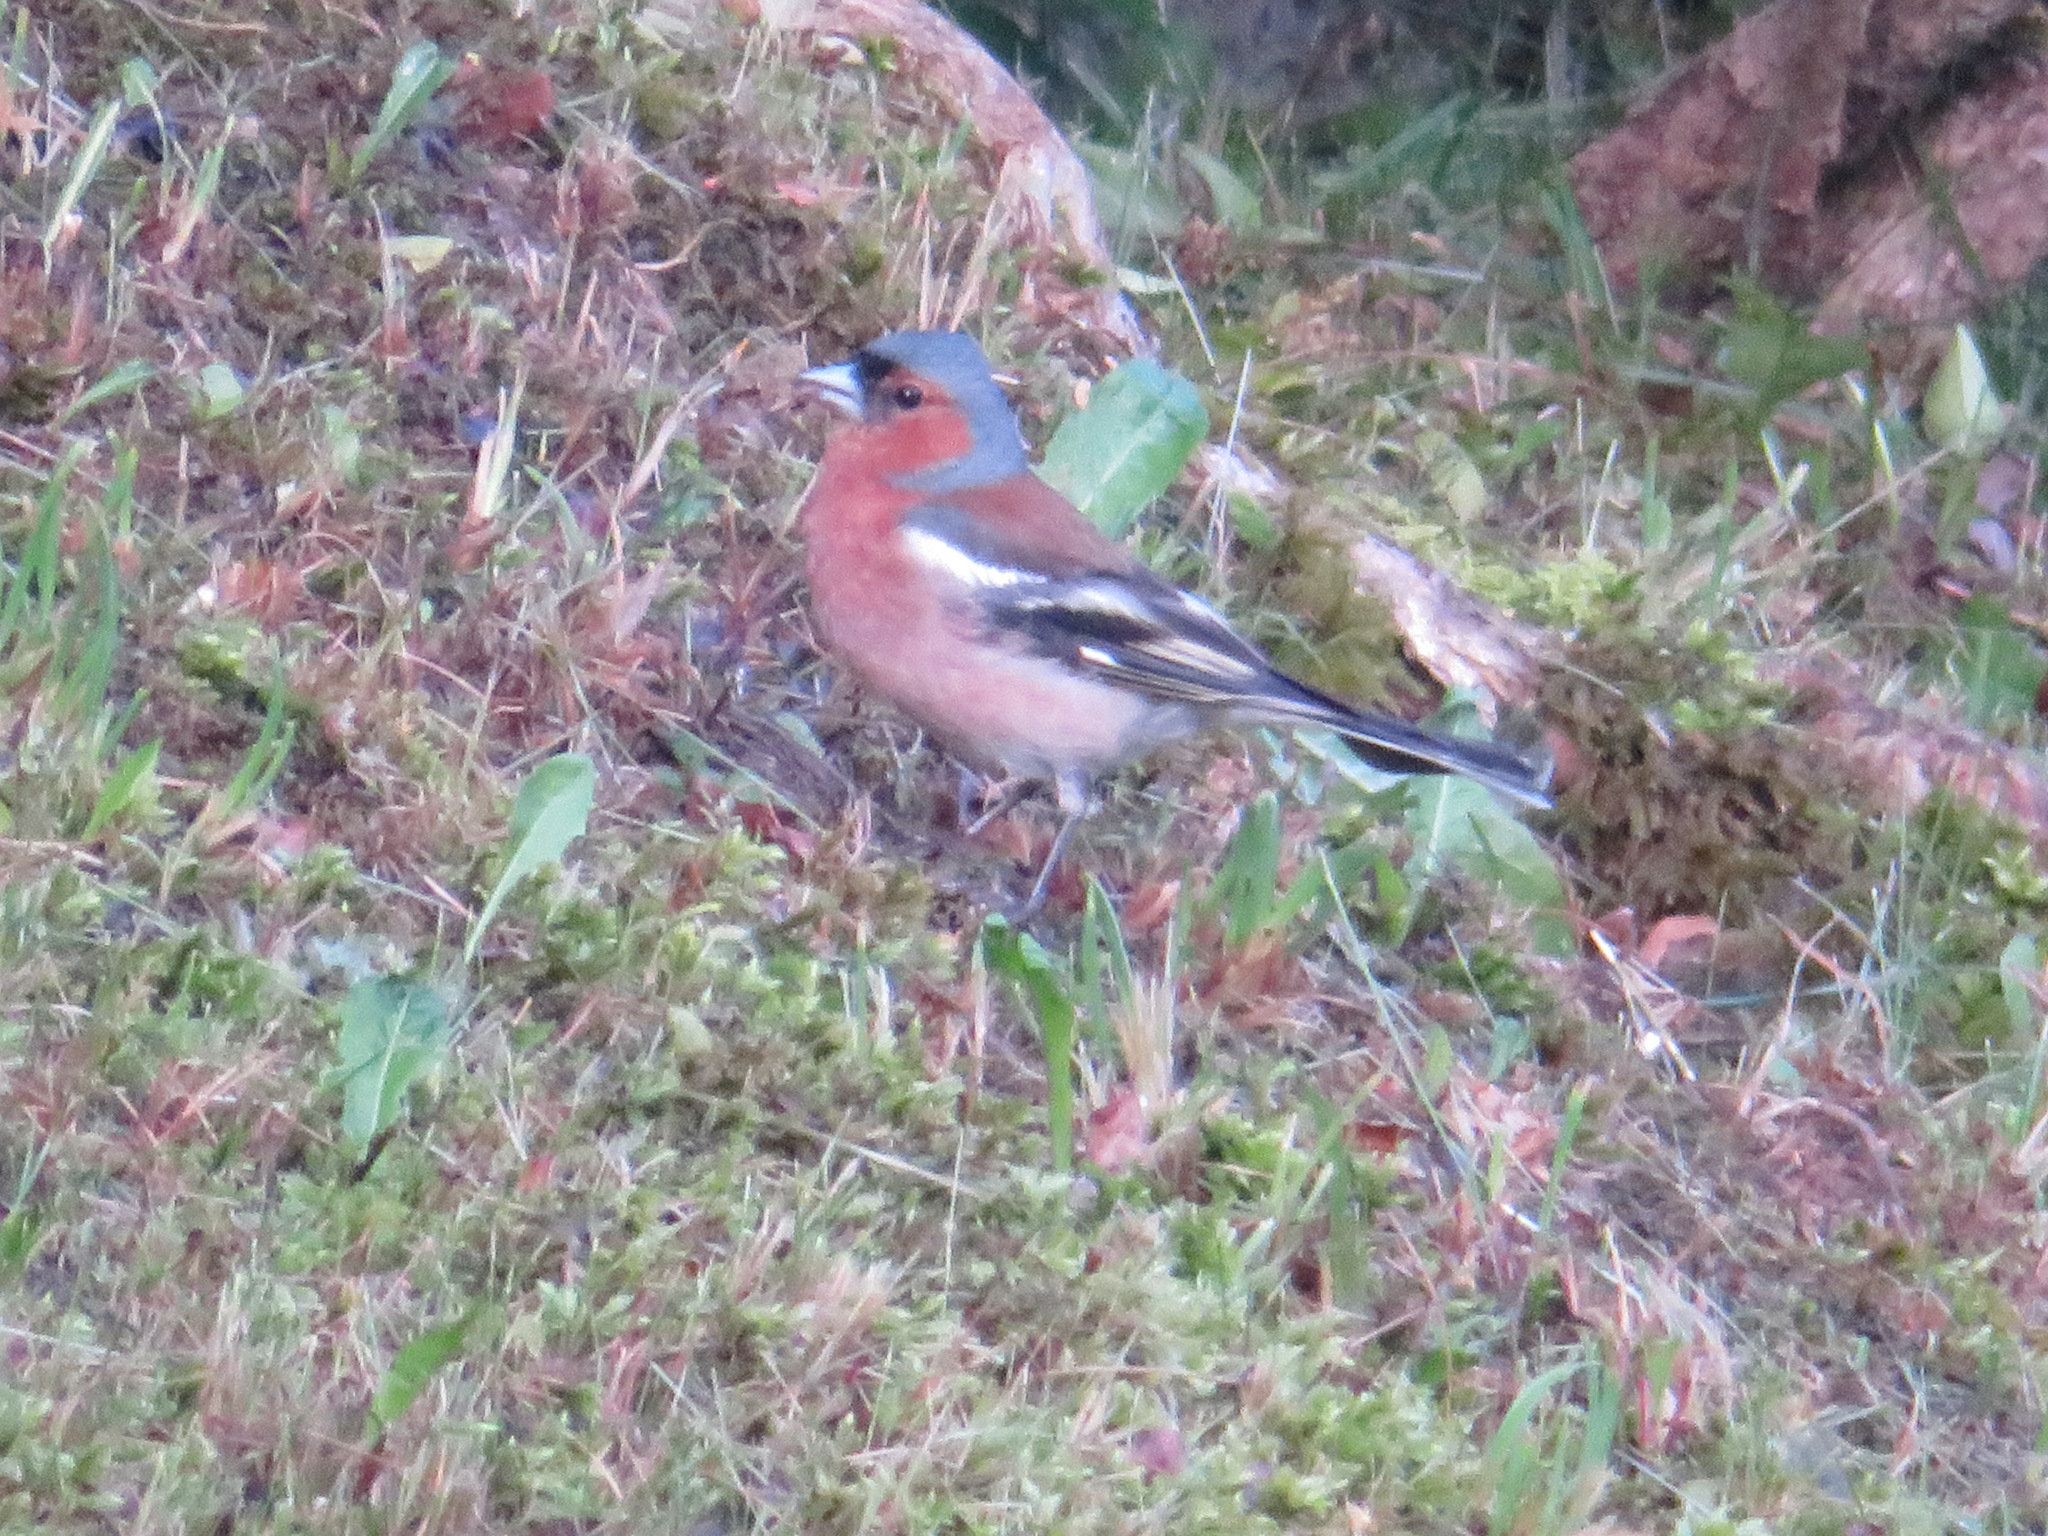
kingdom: Animalia
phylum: Chordata
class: Aves
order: Passeriformes
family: Fringillidae
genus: Fringilla
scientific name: Fringilla coelebs
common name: Common chaffinch
